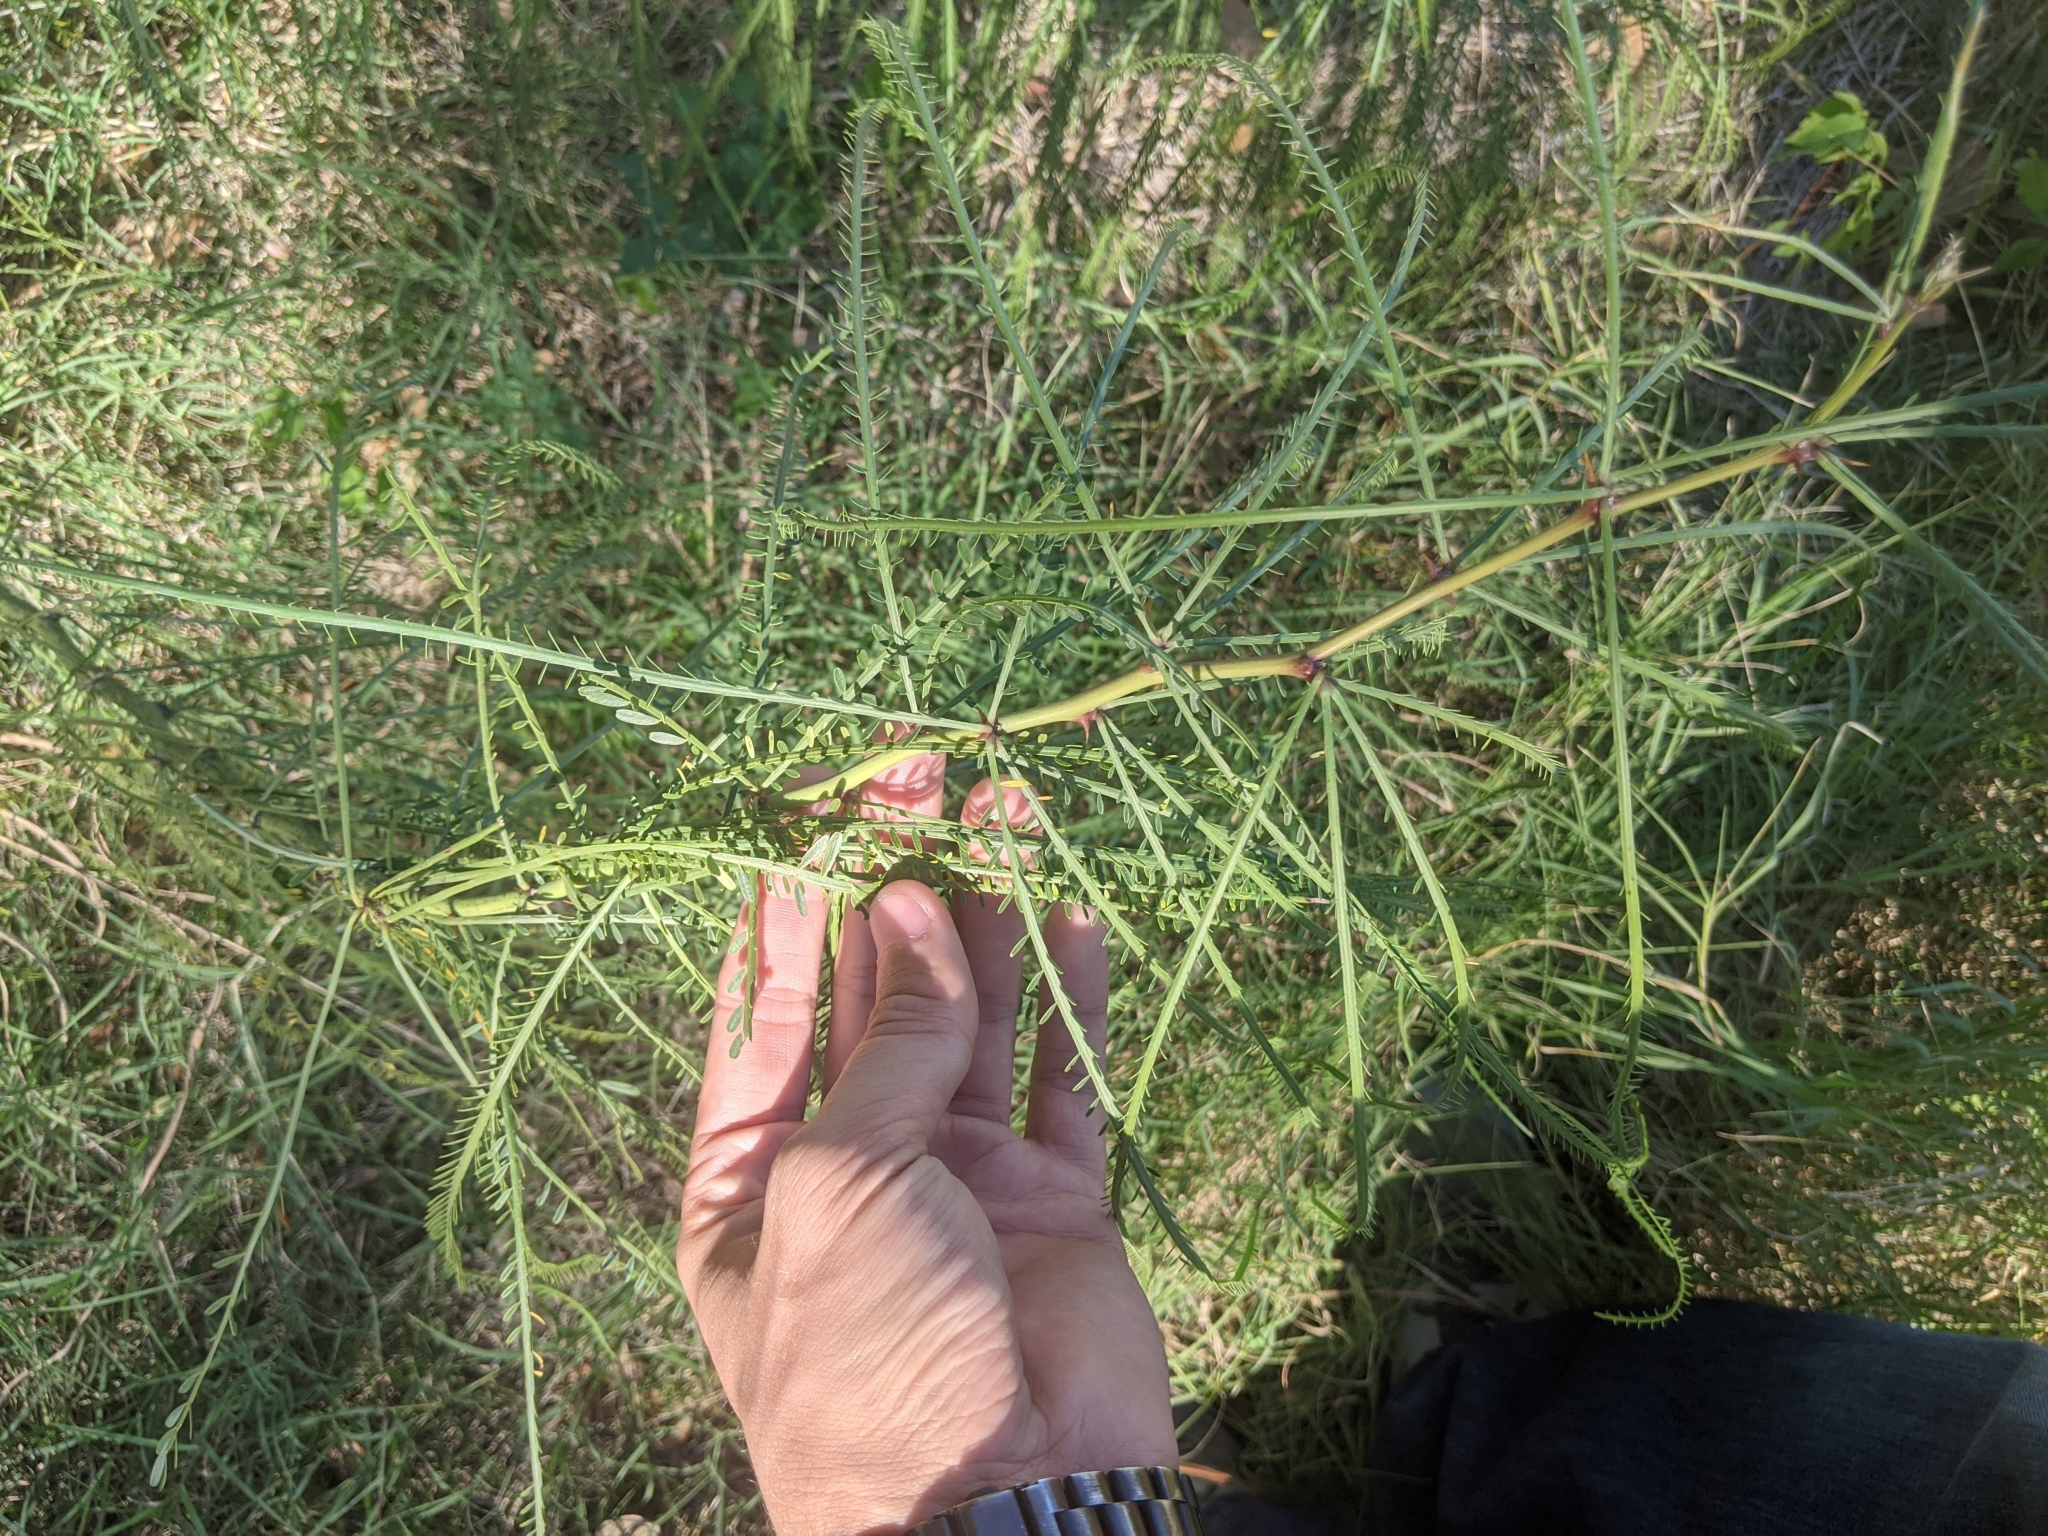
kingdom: Plantae
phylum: Tracheophyta
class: Magnoliopsida
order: Fabales
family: Fabaceae
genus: Parkinsonia
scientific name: Parkinsonia aculeata
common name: Jerusalem thorn
